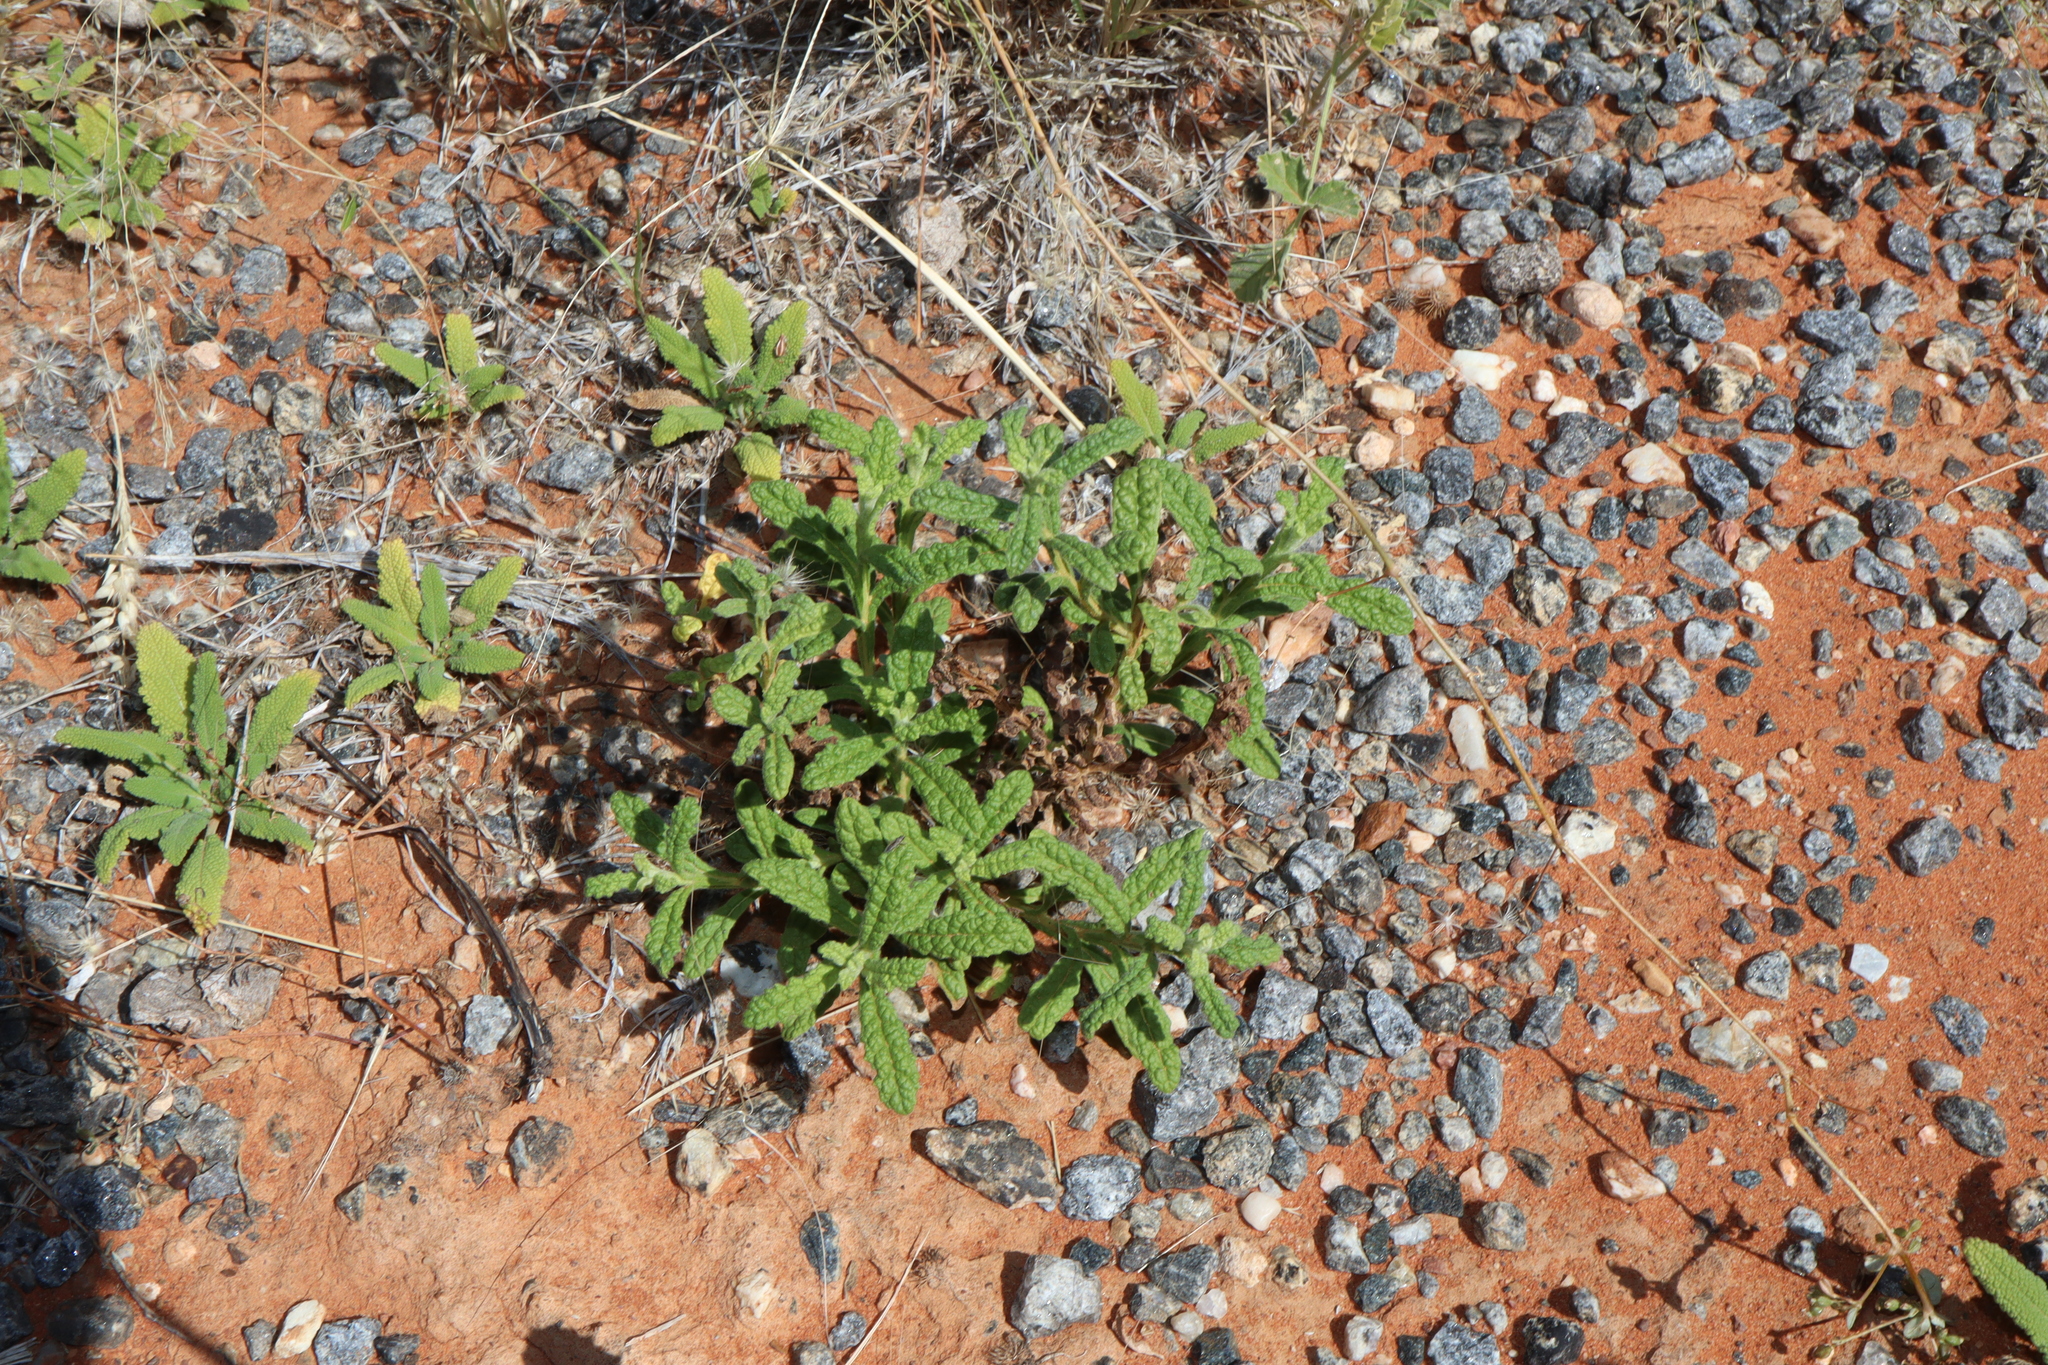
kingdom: Plantae
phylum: Tracheophyta
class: Magnoliopsida
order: Asterales
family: Asteraceae
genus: Pterocaulon
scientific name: Pterocaulon sphacelatum
